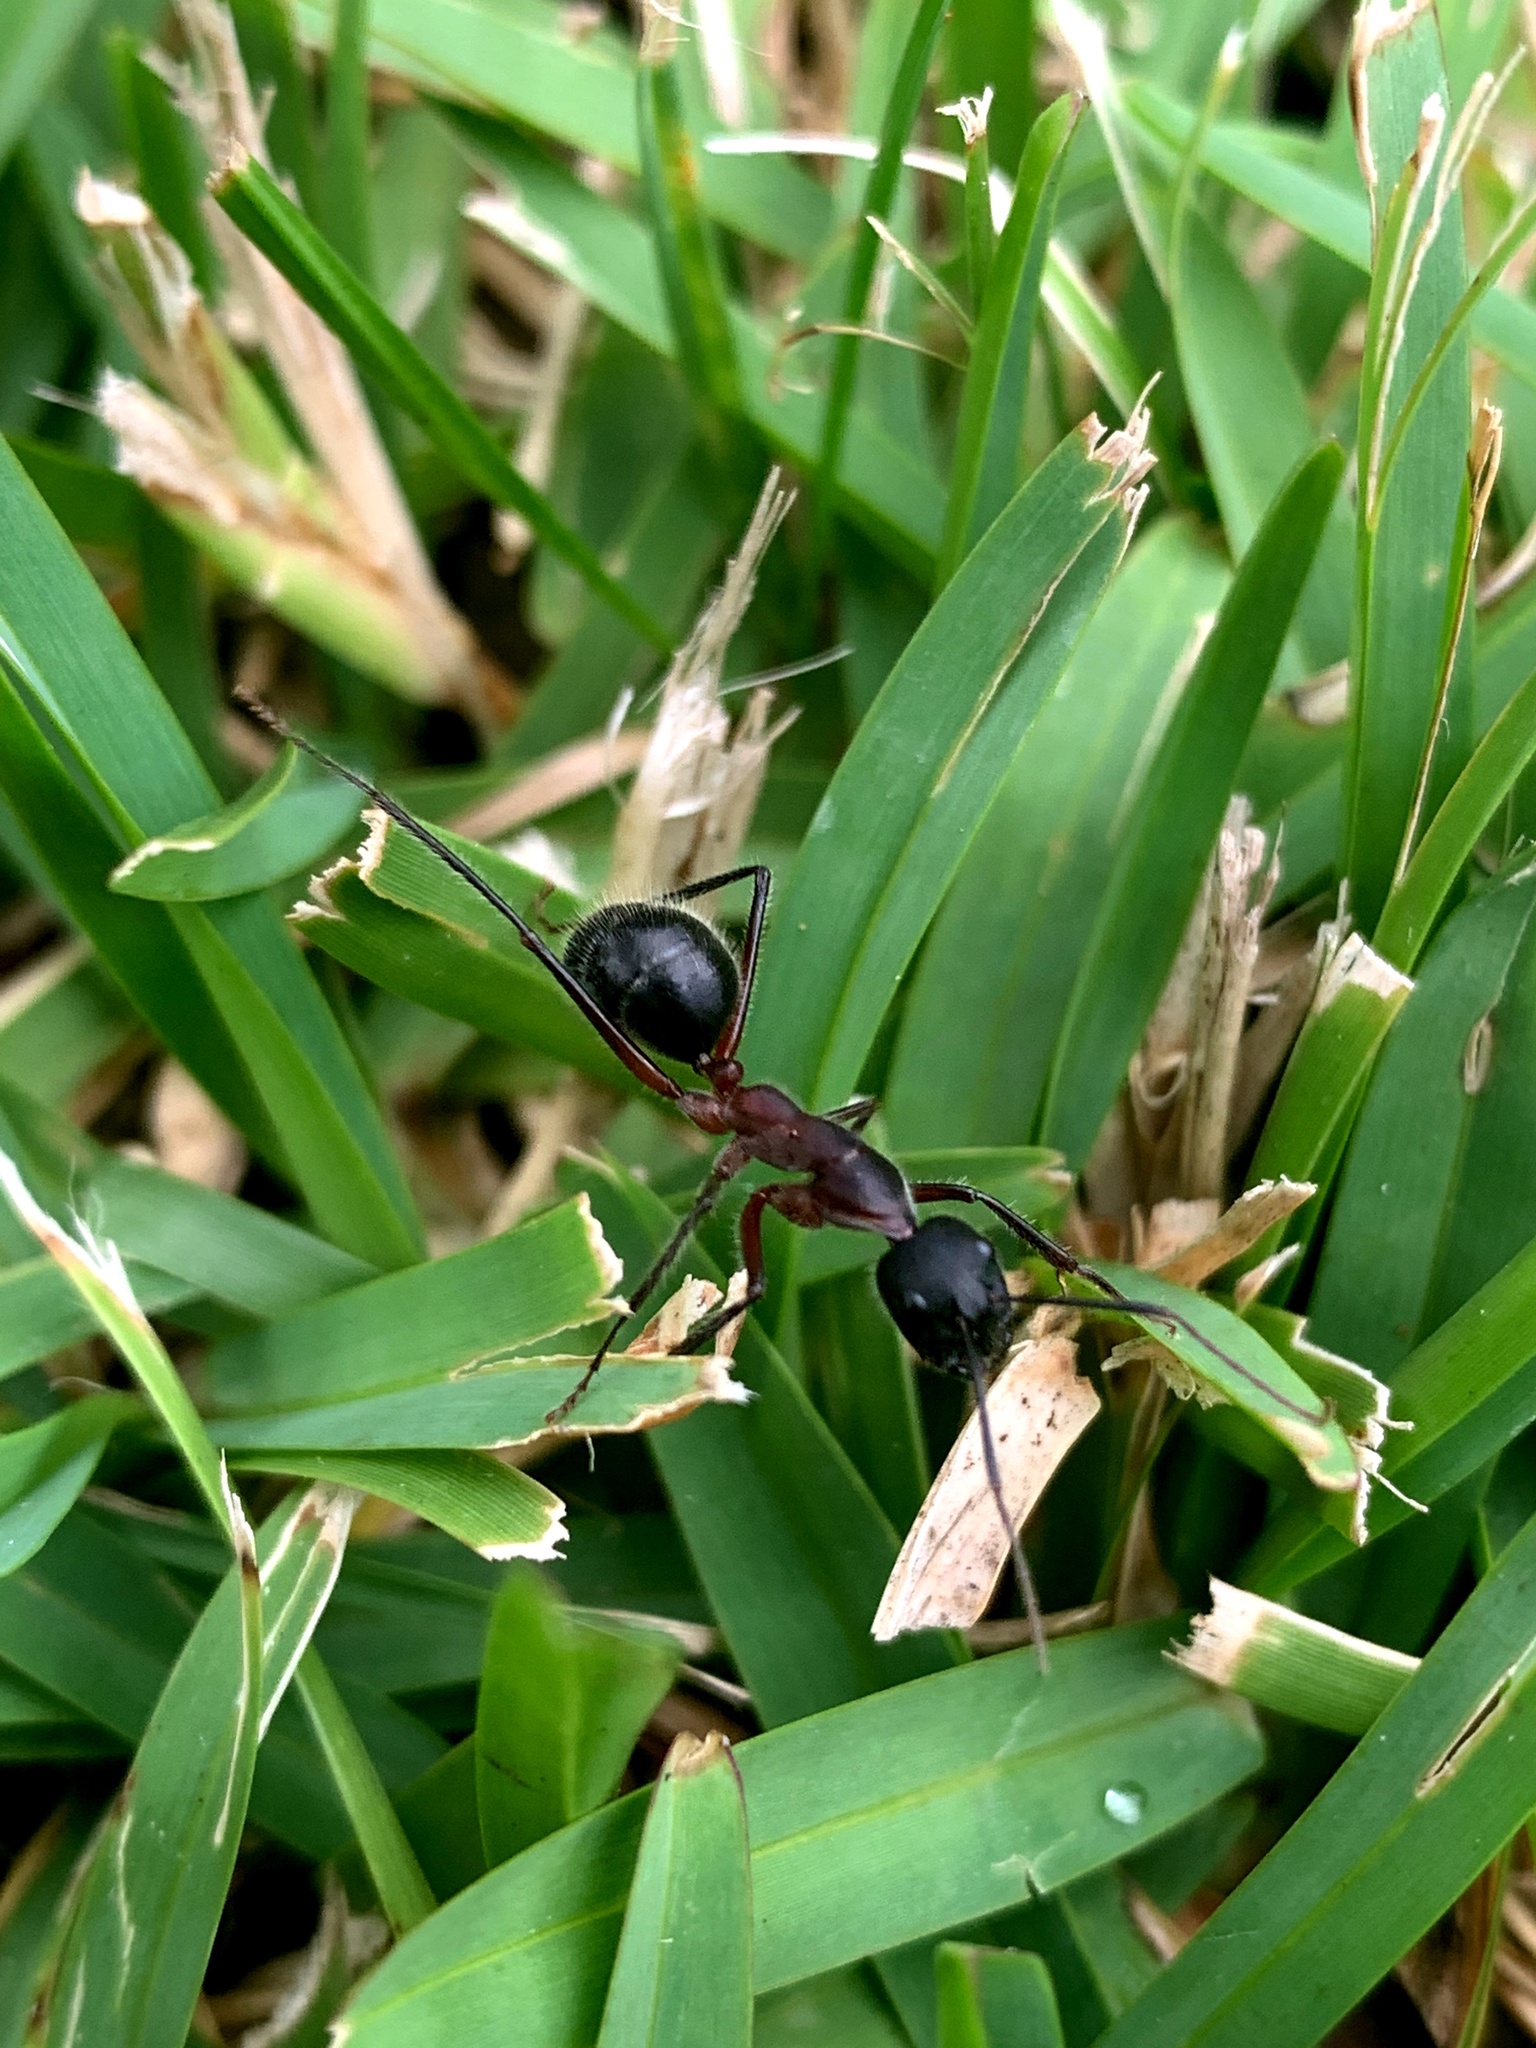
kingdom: Animalia
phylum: Arthropoda
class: Insecta
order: Hymenoptera
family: Formicidae
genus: Camponotus
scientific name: Camponotus intrepidus
